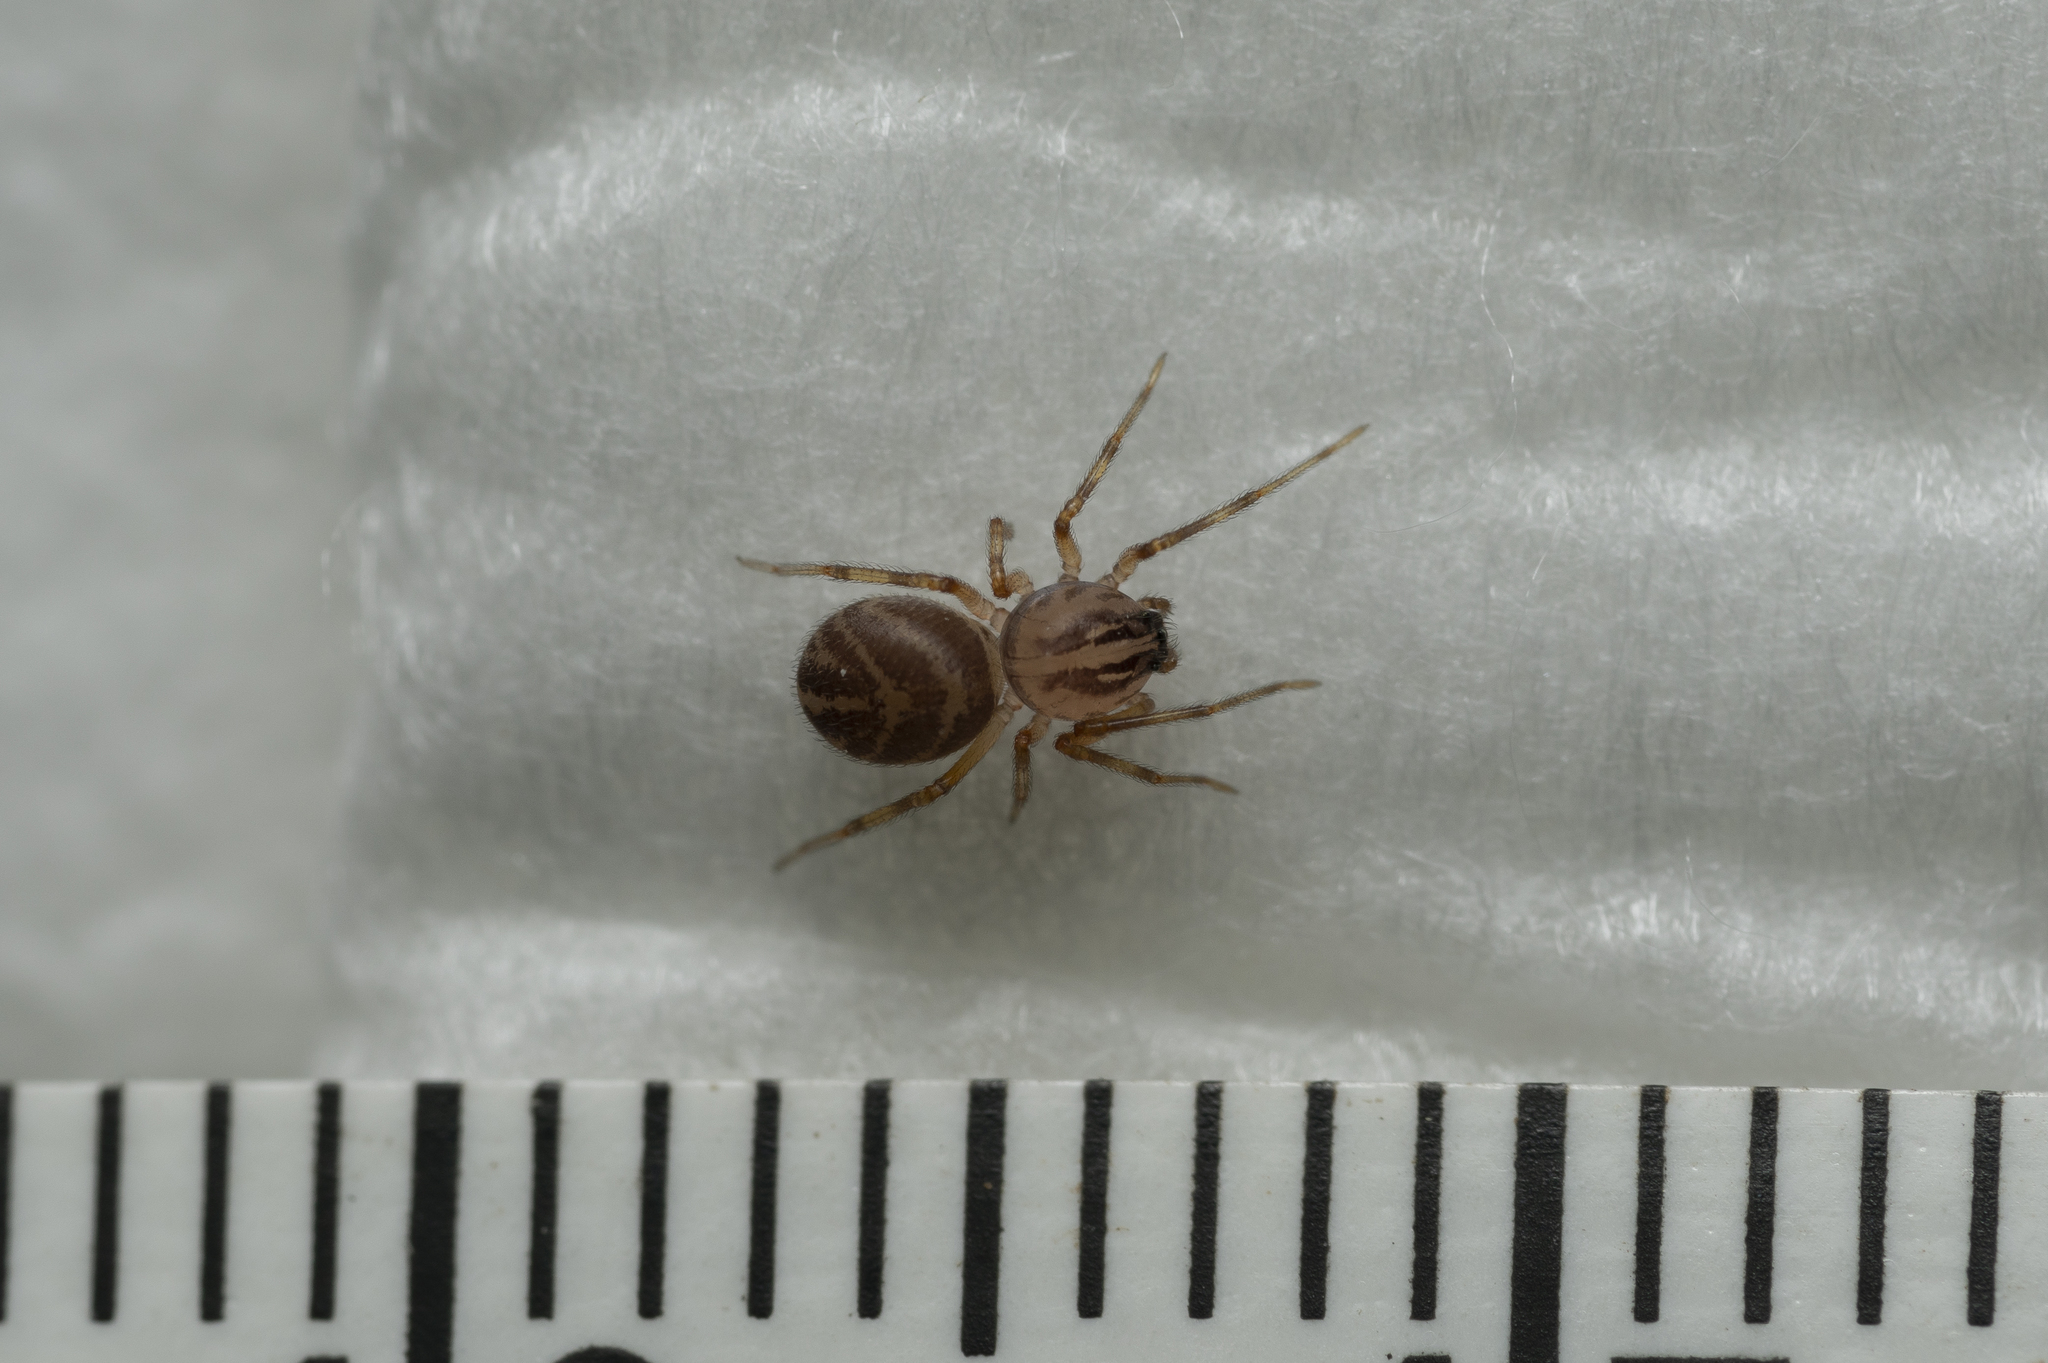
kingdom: Animalia
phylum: Arthropoda
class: Arachnida
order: Araneae
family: Scytodidae
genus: Scytodes
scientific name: Scytodes velutina
